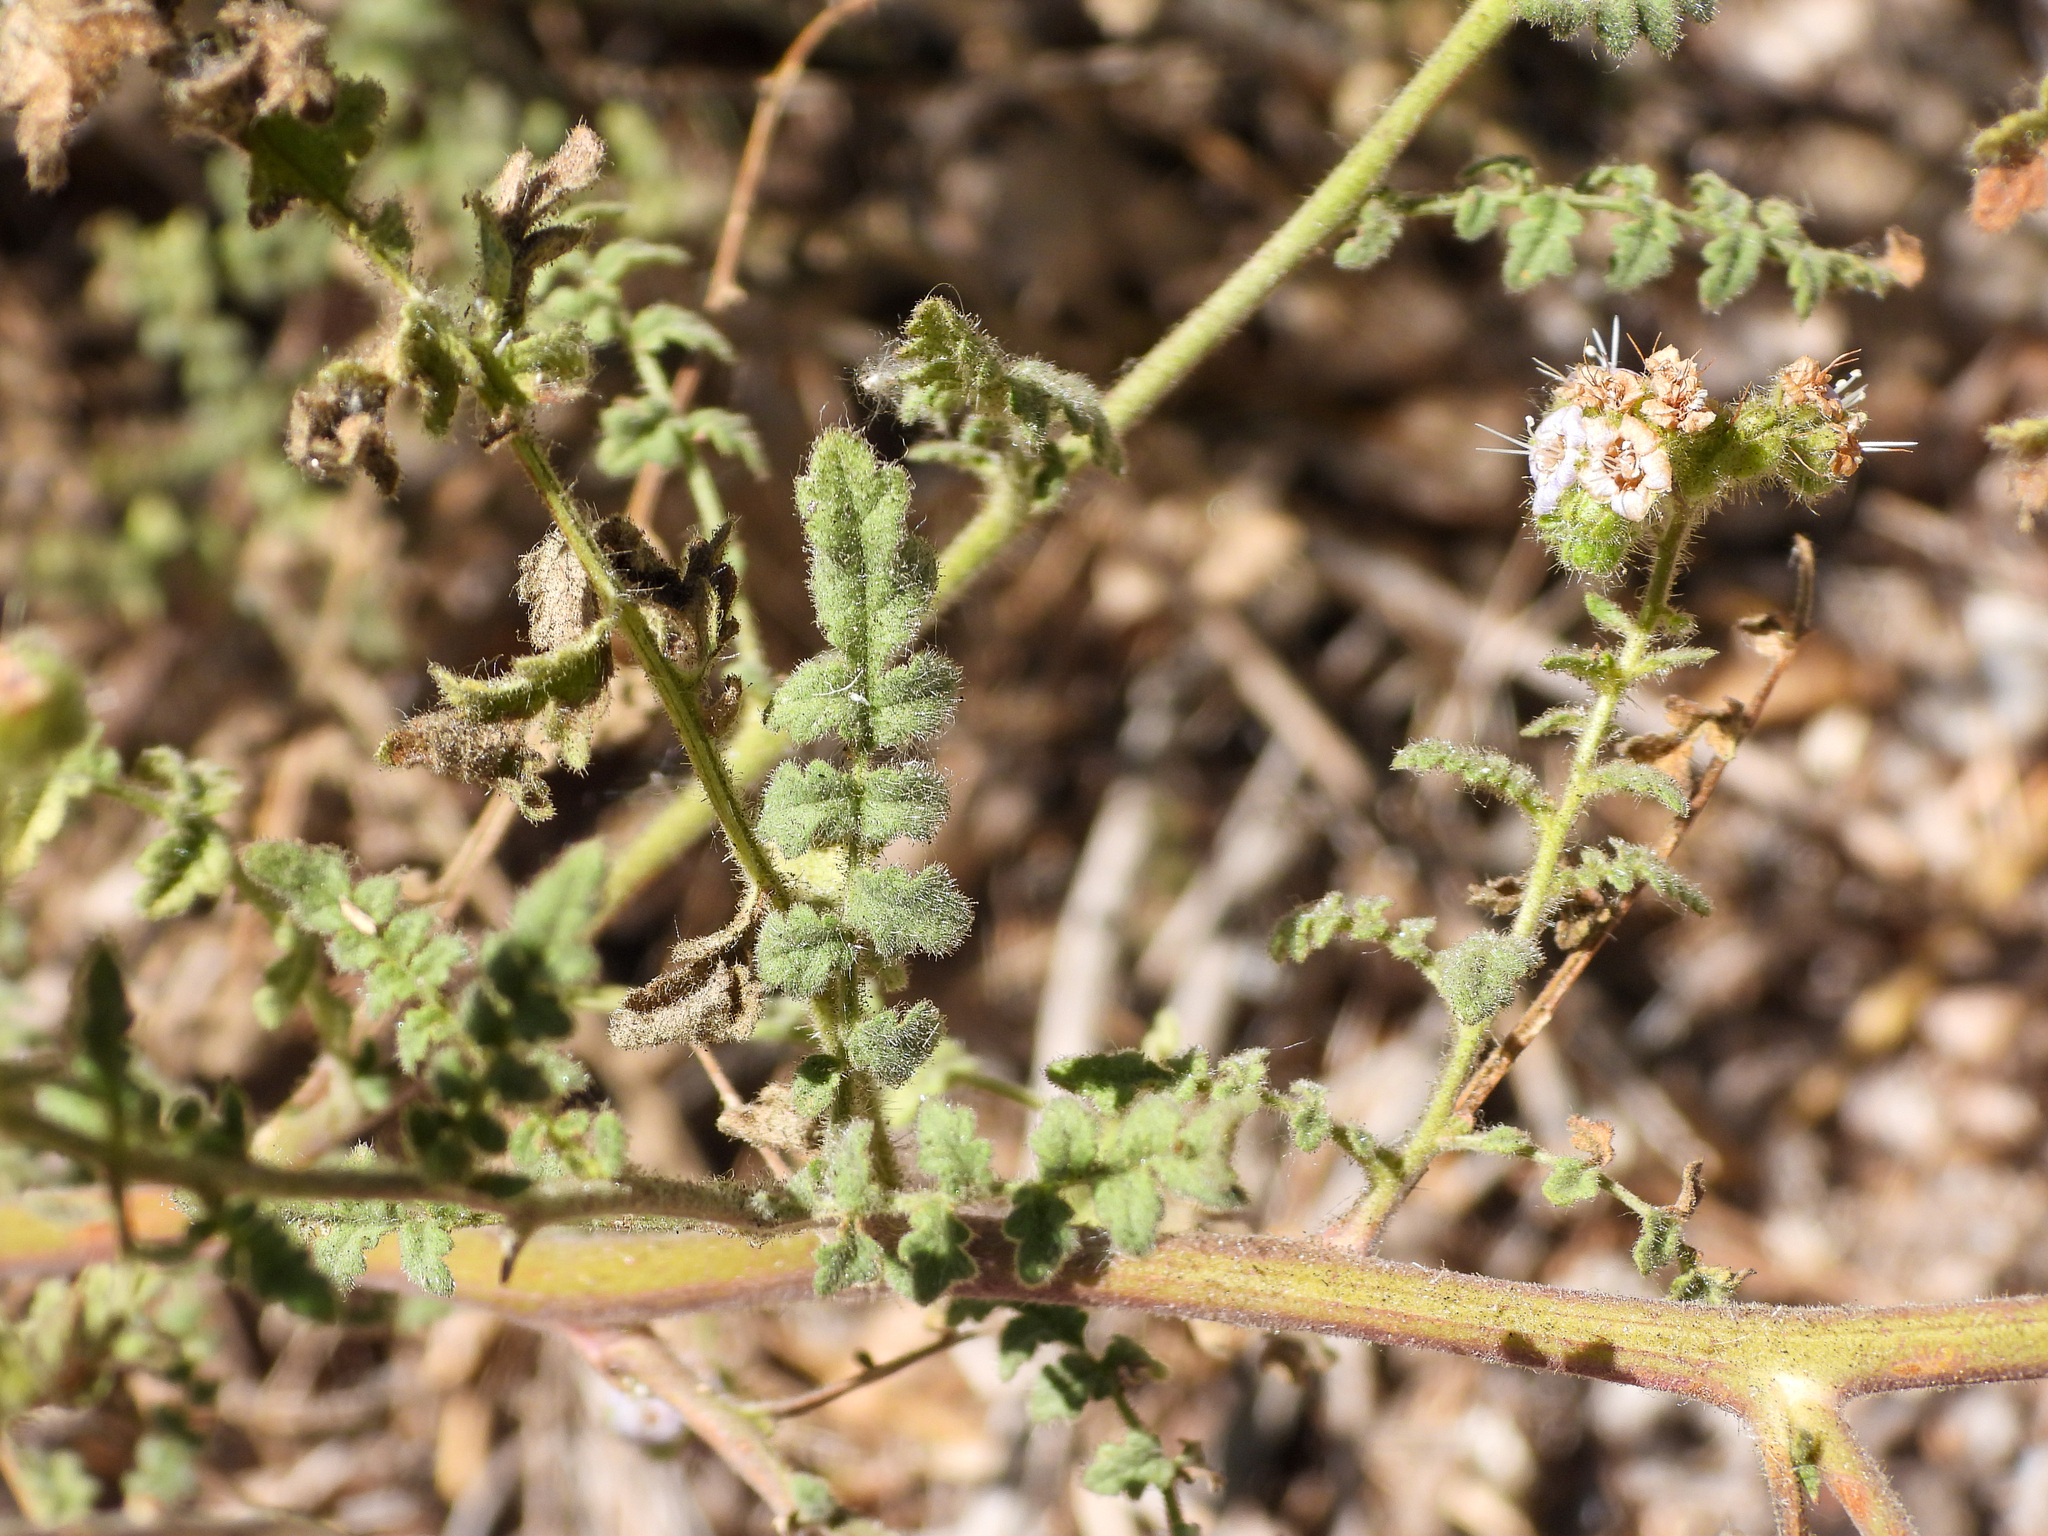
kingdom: Plantae
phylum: Tracheophyta
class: Magnoliopsida
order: Boraginales
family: Hydrophyllaceae
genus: Phacelia
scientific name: Phacelia ramosissima
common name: Branching phacelia
